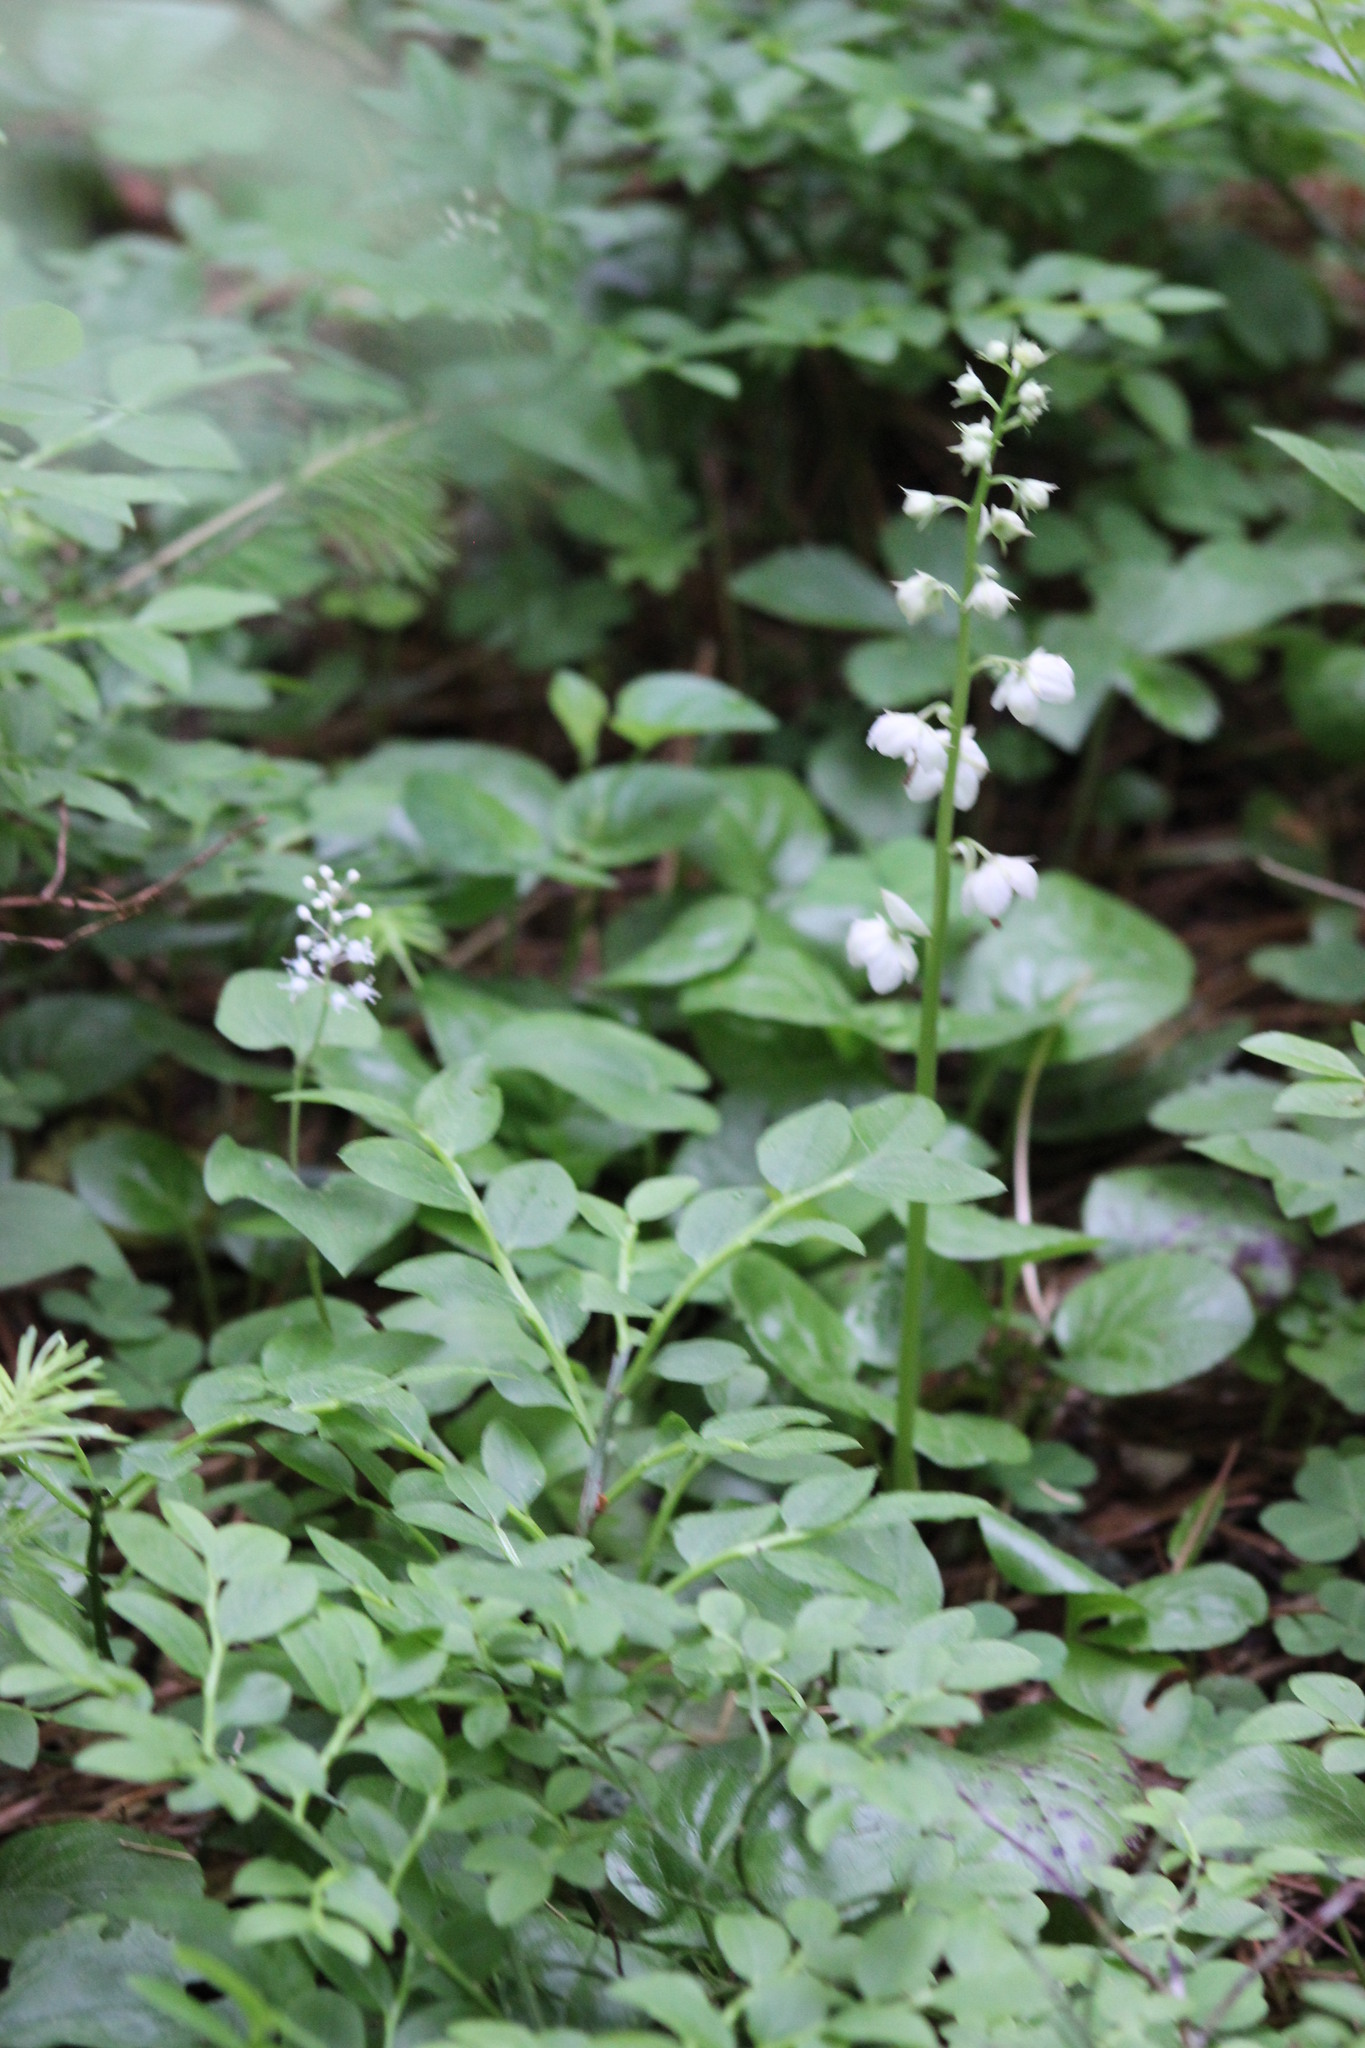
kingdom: Plantae
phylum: Tracheophyta
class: Magnoliopsida
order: Ericales
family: Ericaceae
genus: Pyrola
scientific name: Pyrola rotundifolia
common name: Round-leaved wintergreen
